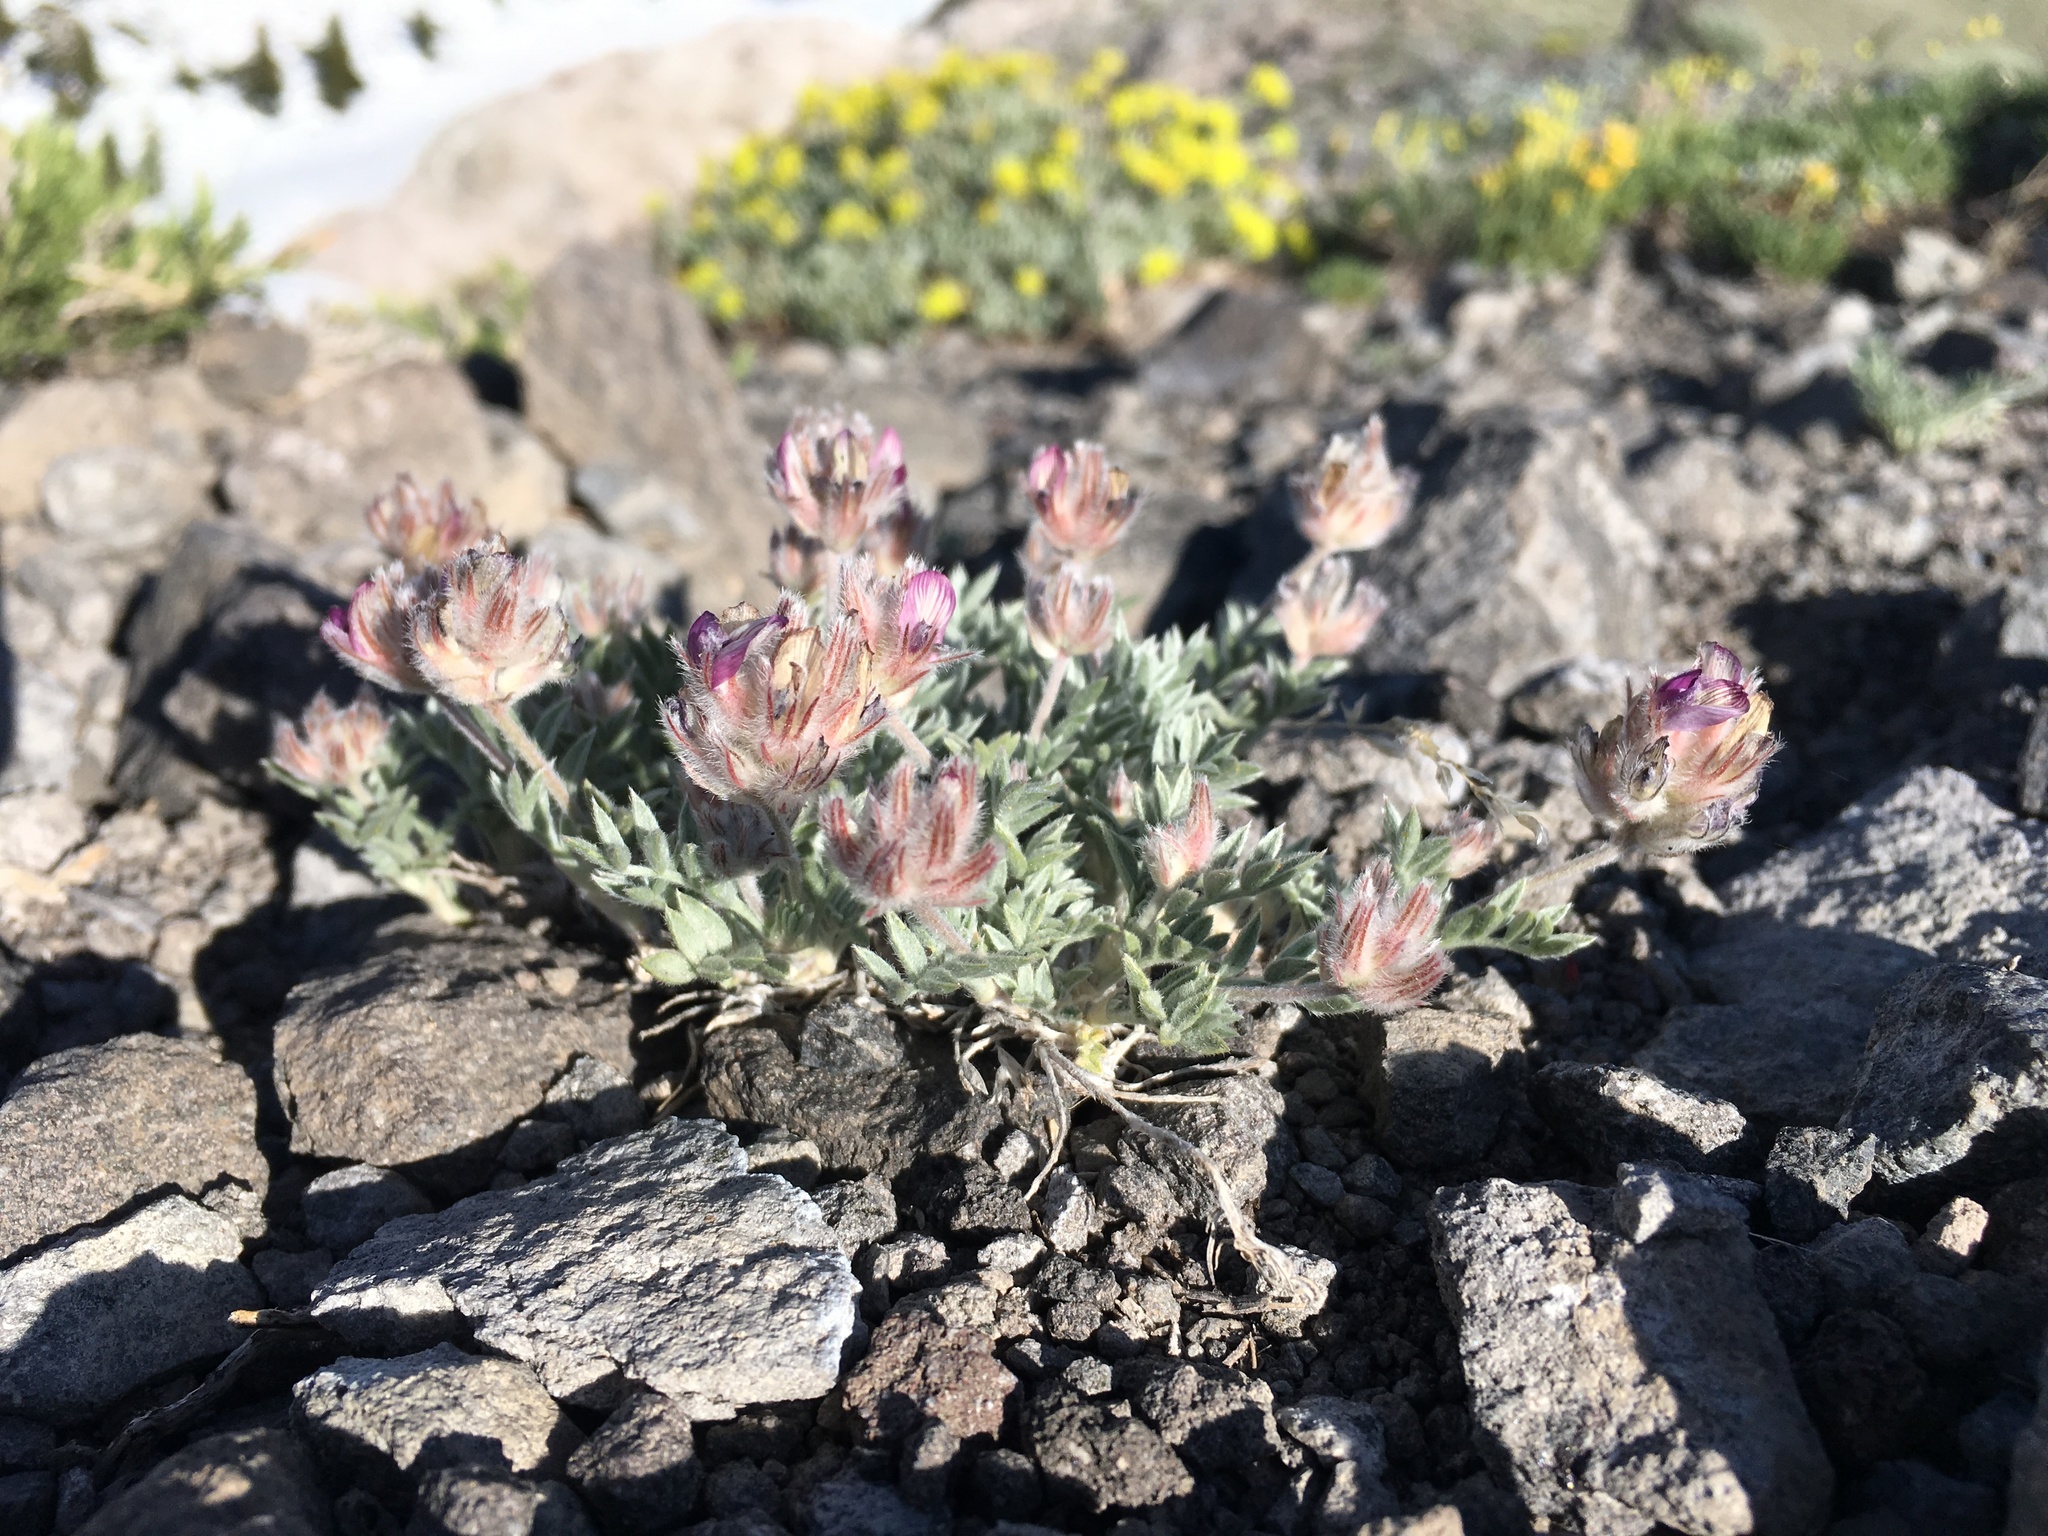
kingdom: Plantae
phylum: Tracheophyta
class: Magnoliopsida
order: Fabales
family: Fabaceae
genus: Astragalus
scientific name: Astragalus austiniae
